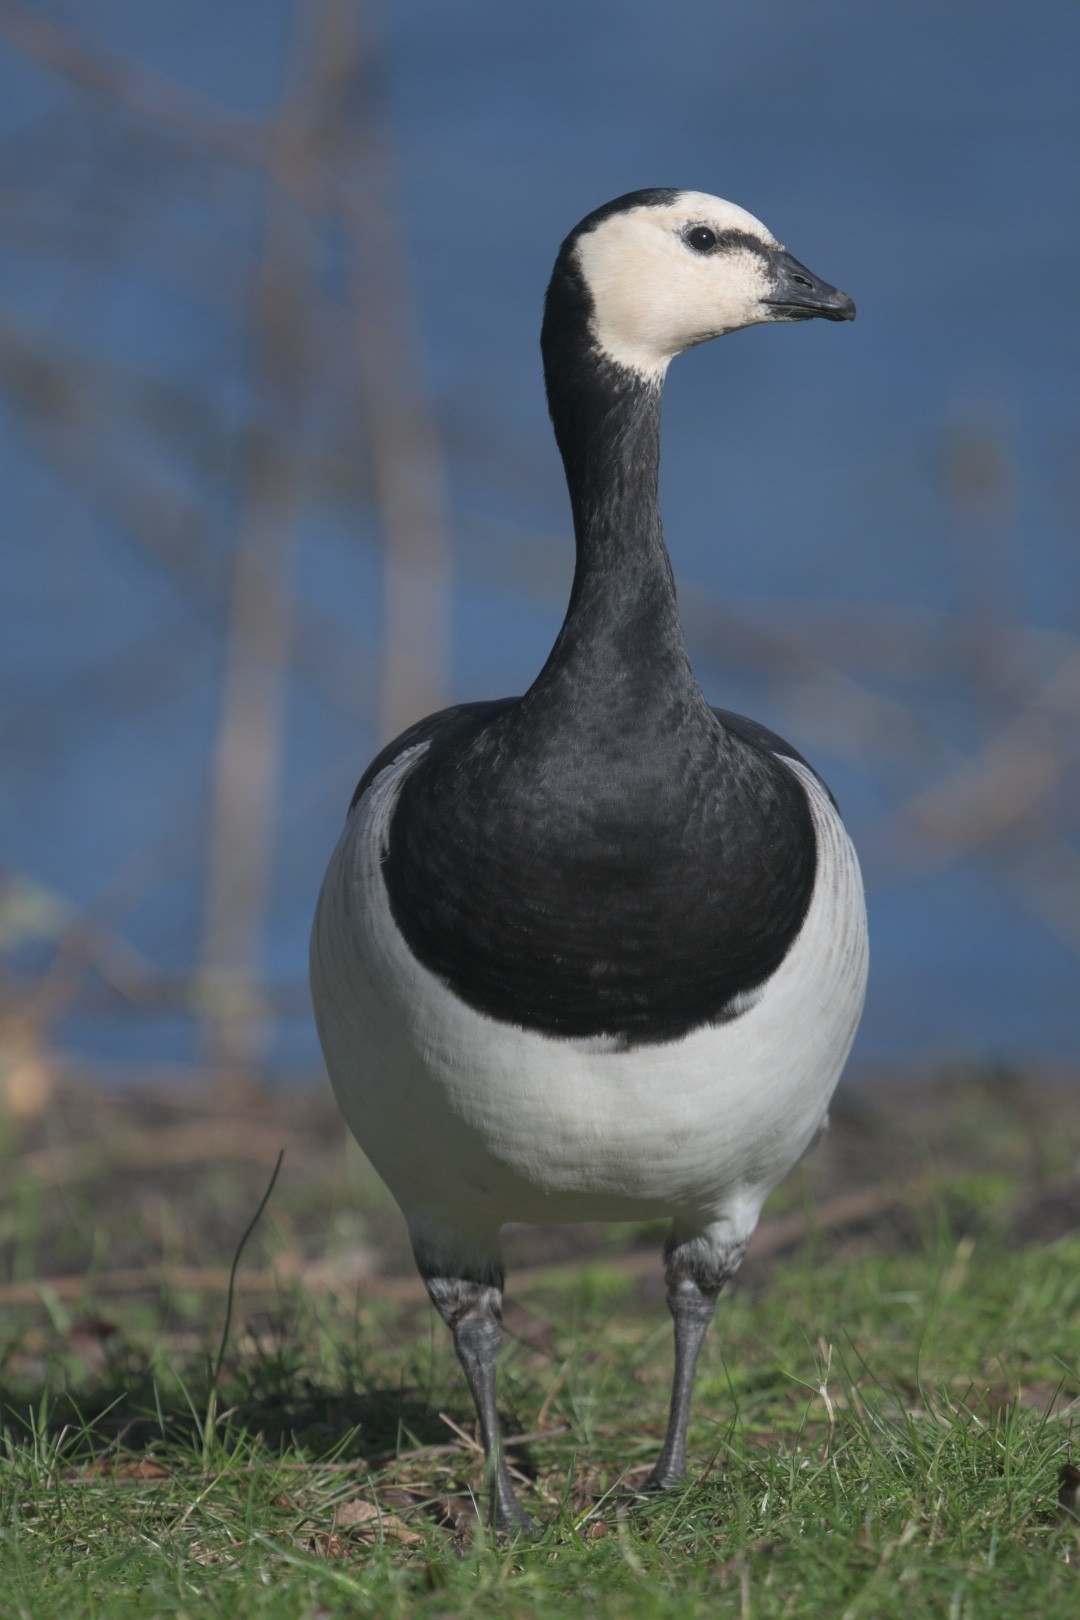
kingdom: Animalia
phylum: Chordata
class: Aves
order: Anseriformes
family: Anatidae
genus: Branta
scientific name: Branta leucopsis
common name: Barnacle goose
